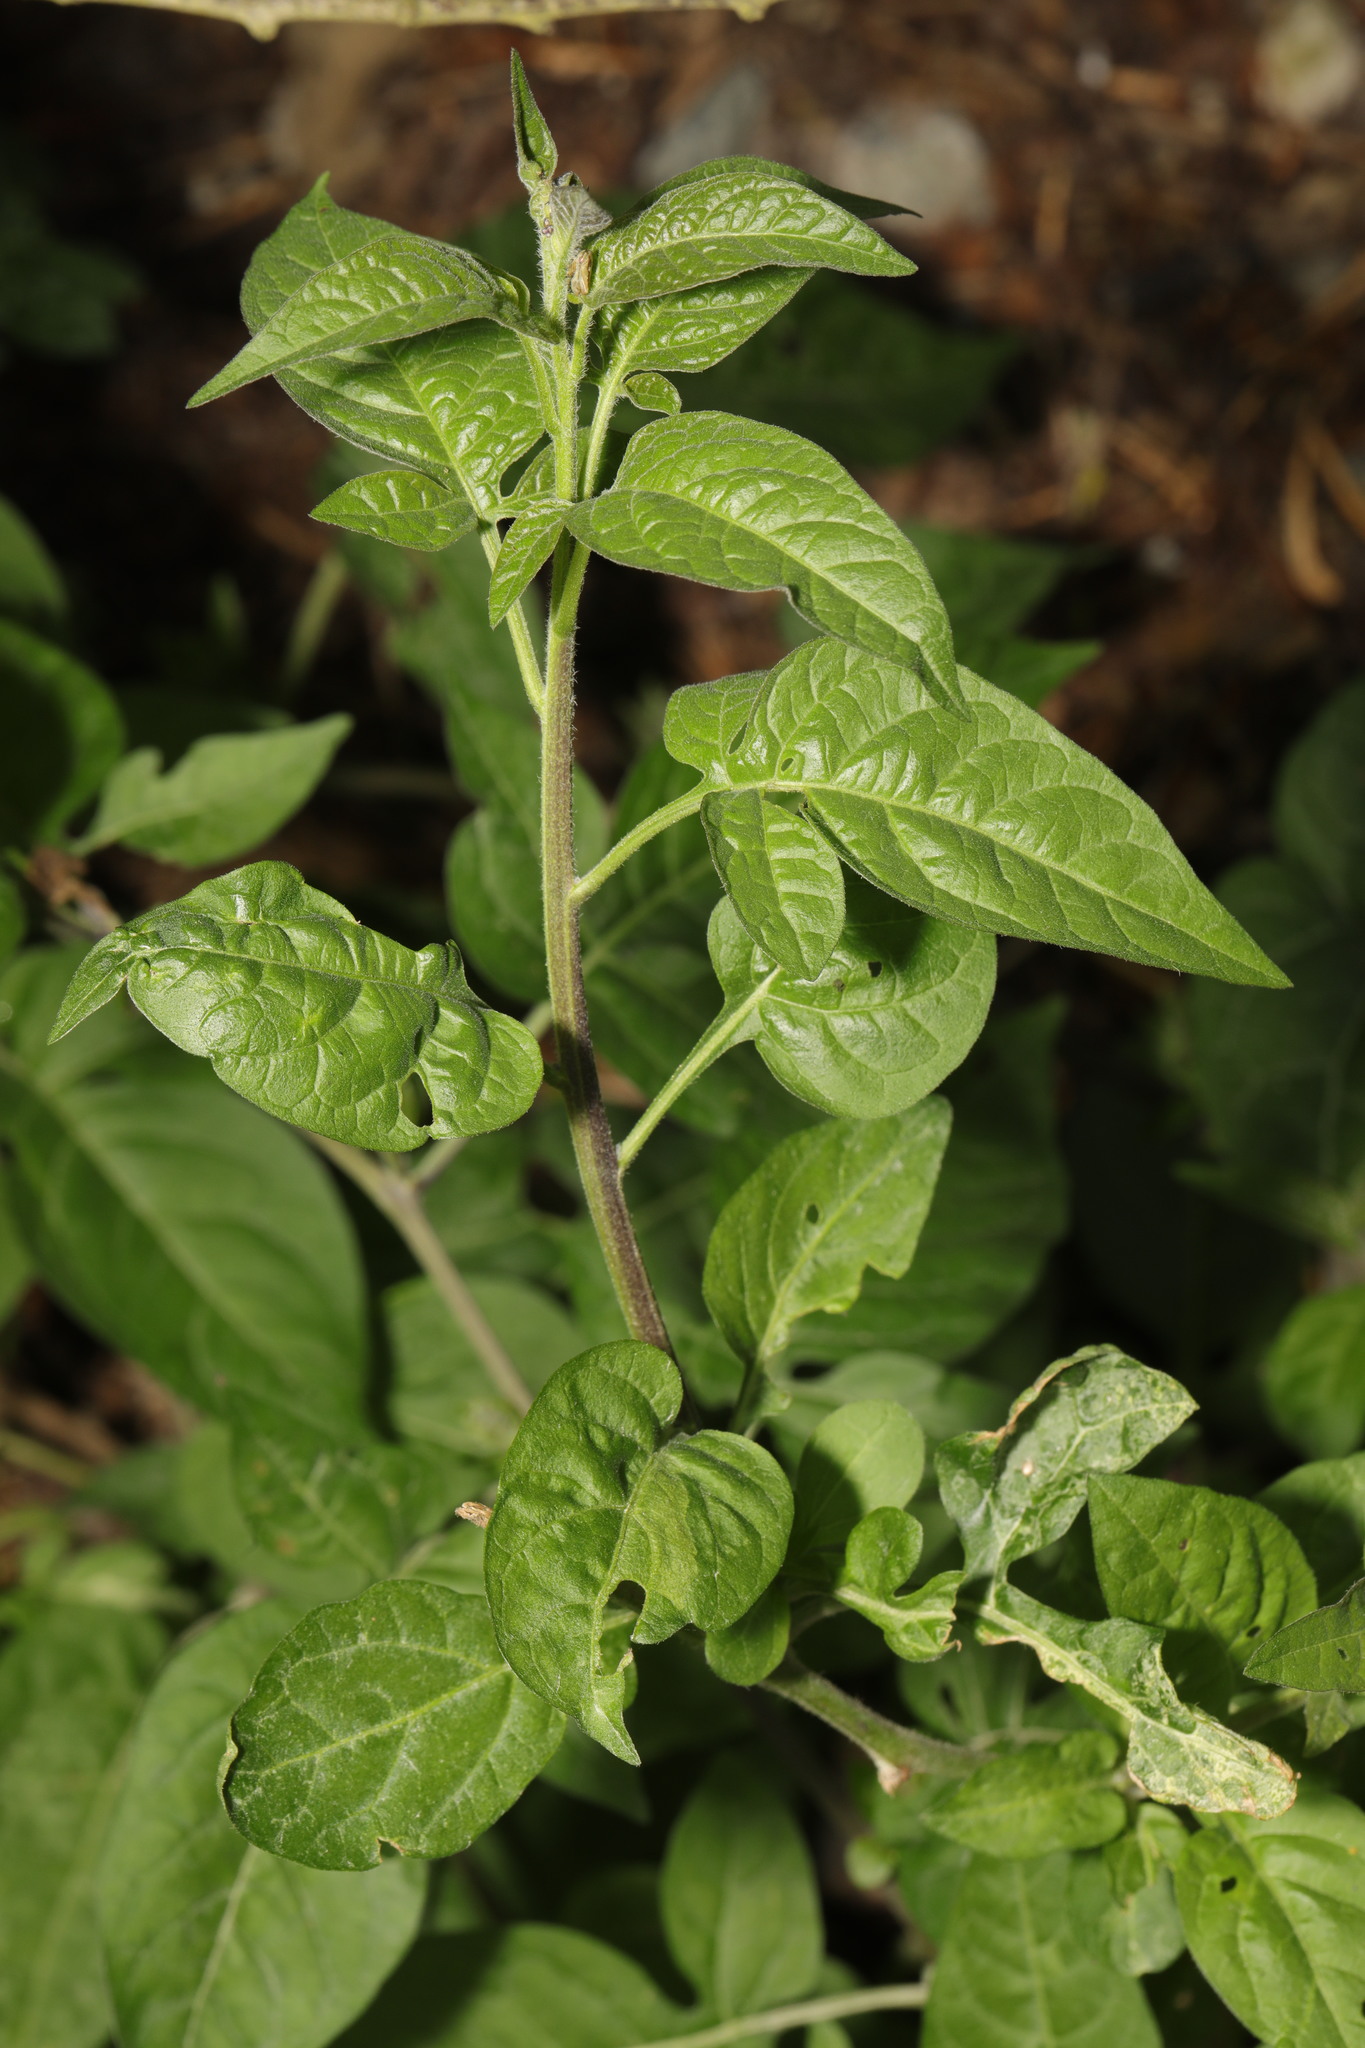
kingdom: Plantae
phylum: Tracheophyta
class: Magnoliopsida
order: Solanales
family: Solanaceae
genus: Solanum
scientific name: Solanum dulcamara
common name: Climbing nightshade
